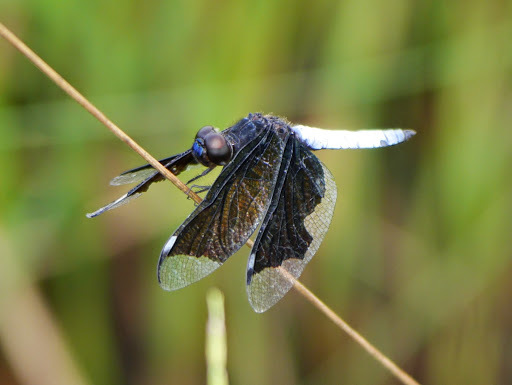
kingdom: Animalia
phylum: Arthropoda
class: Insecta
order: Odonata
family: Libellulidae
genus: Palpopleura
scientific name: Palpopleura lucia
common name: Lucia widow
